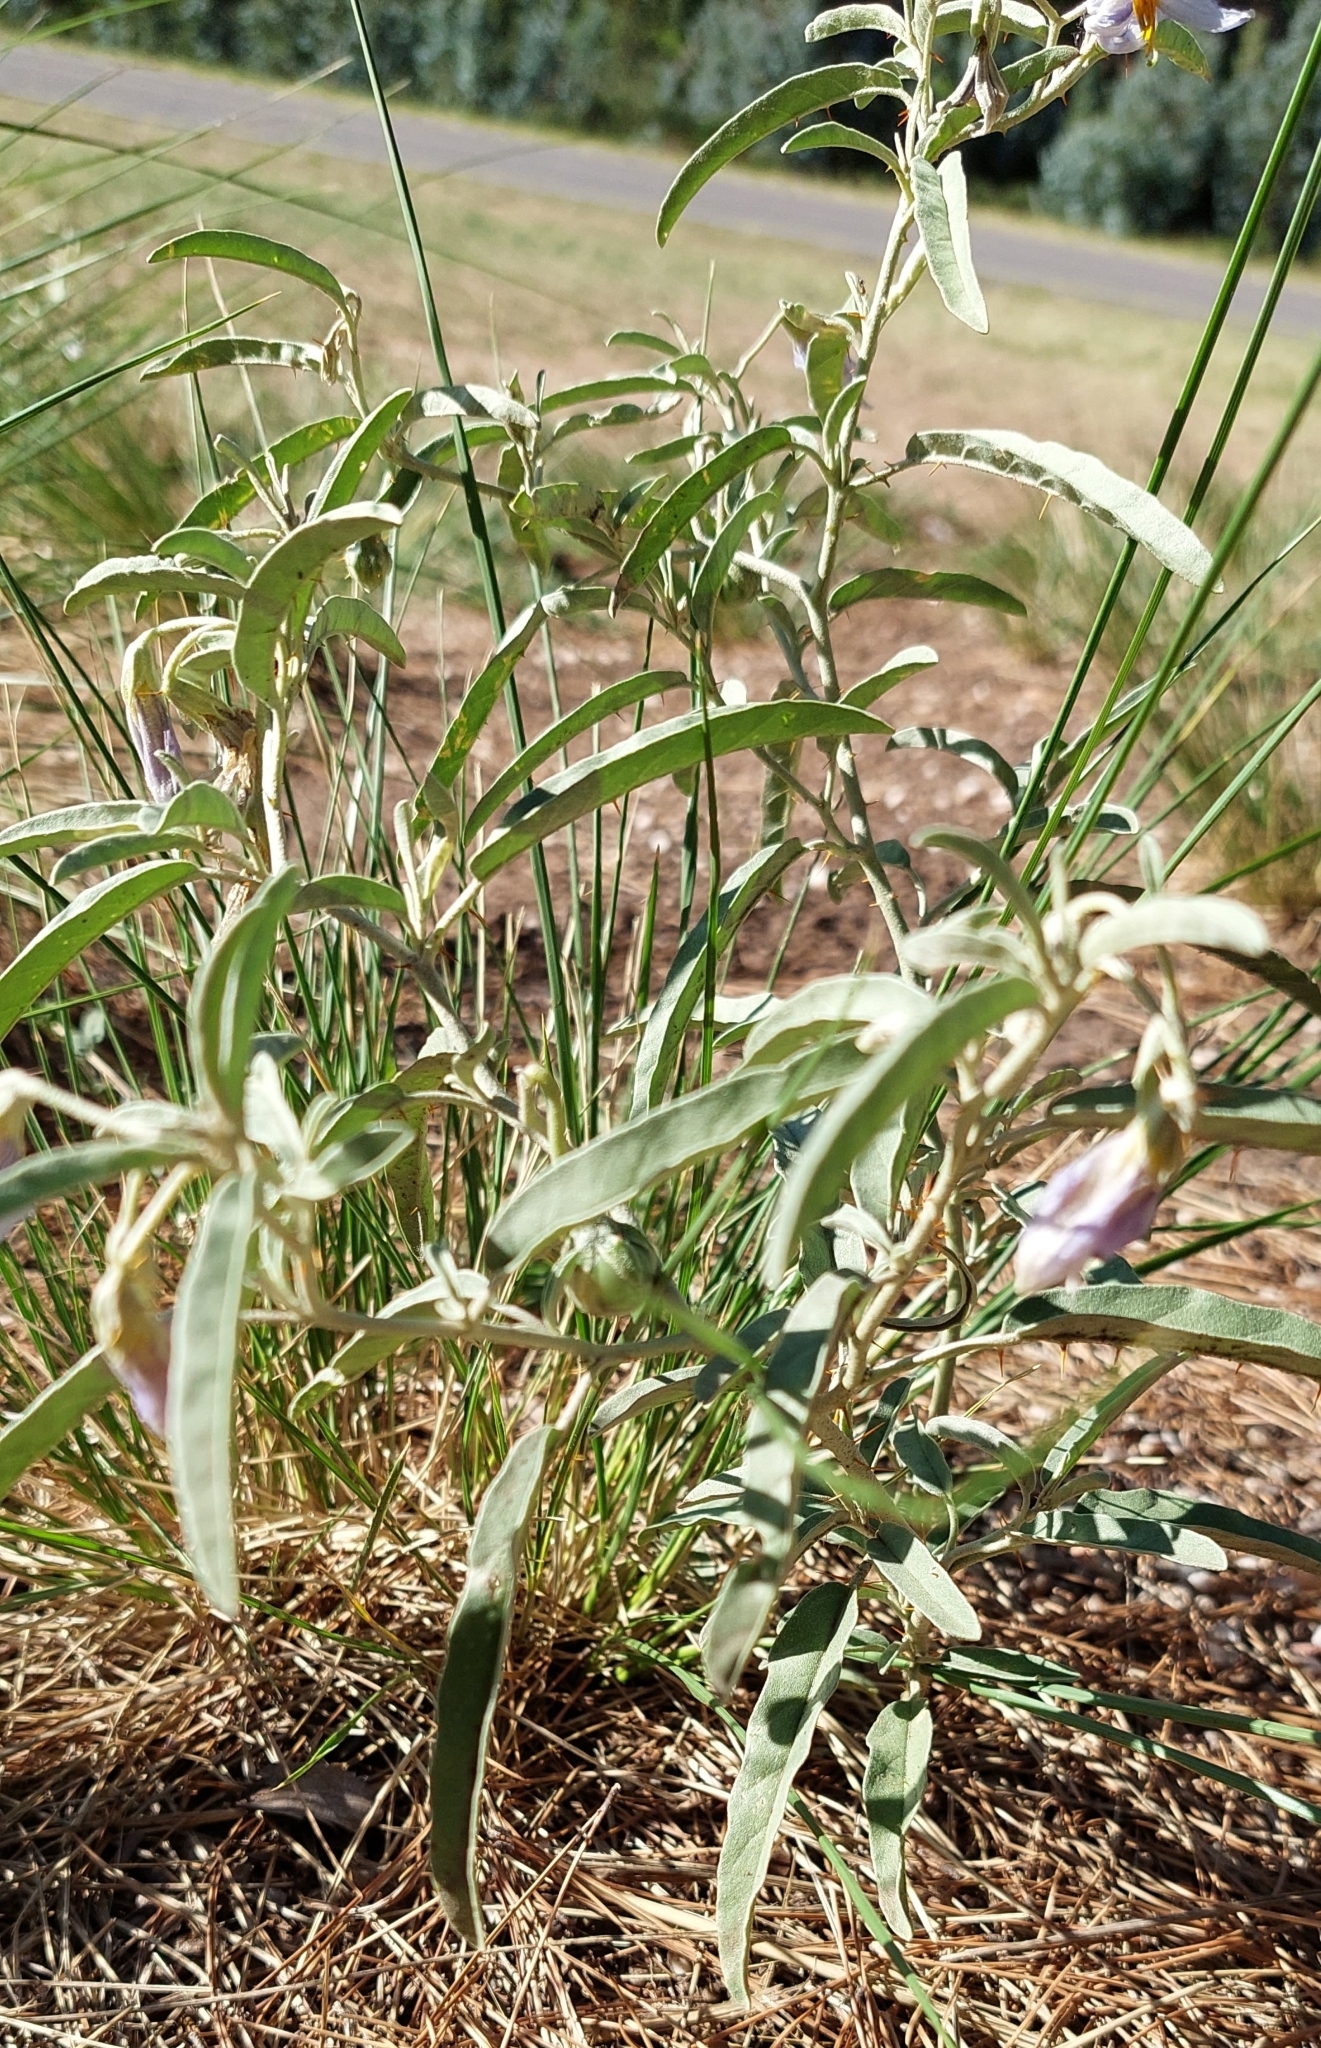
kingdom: Plantae
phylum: Tracheophyta
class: Magnoliopsida
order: Solanales
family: Solanaceae
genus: Solanum
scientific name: Solanum elaeagnifolium
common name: Silverleaf nightshade
